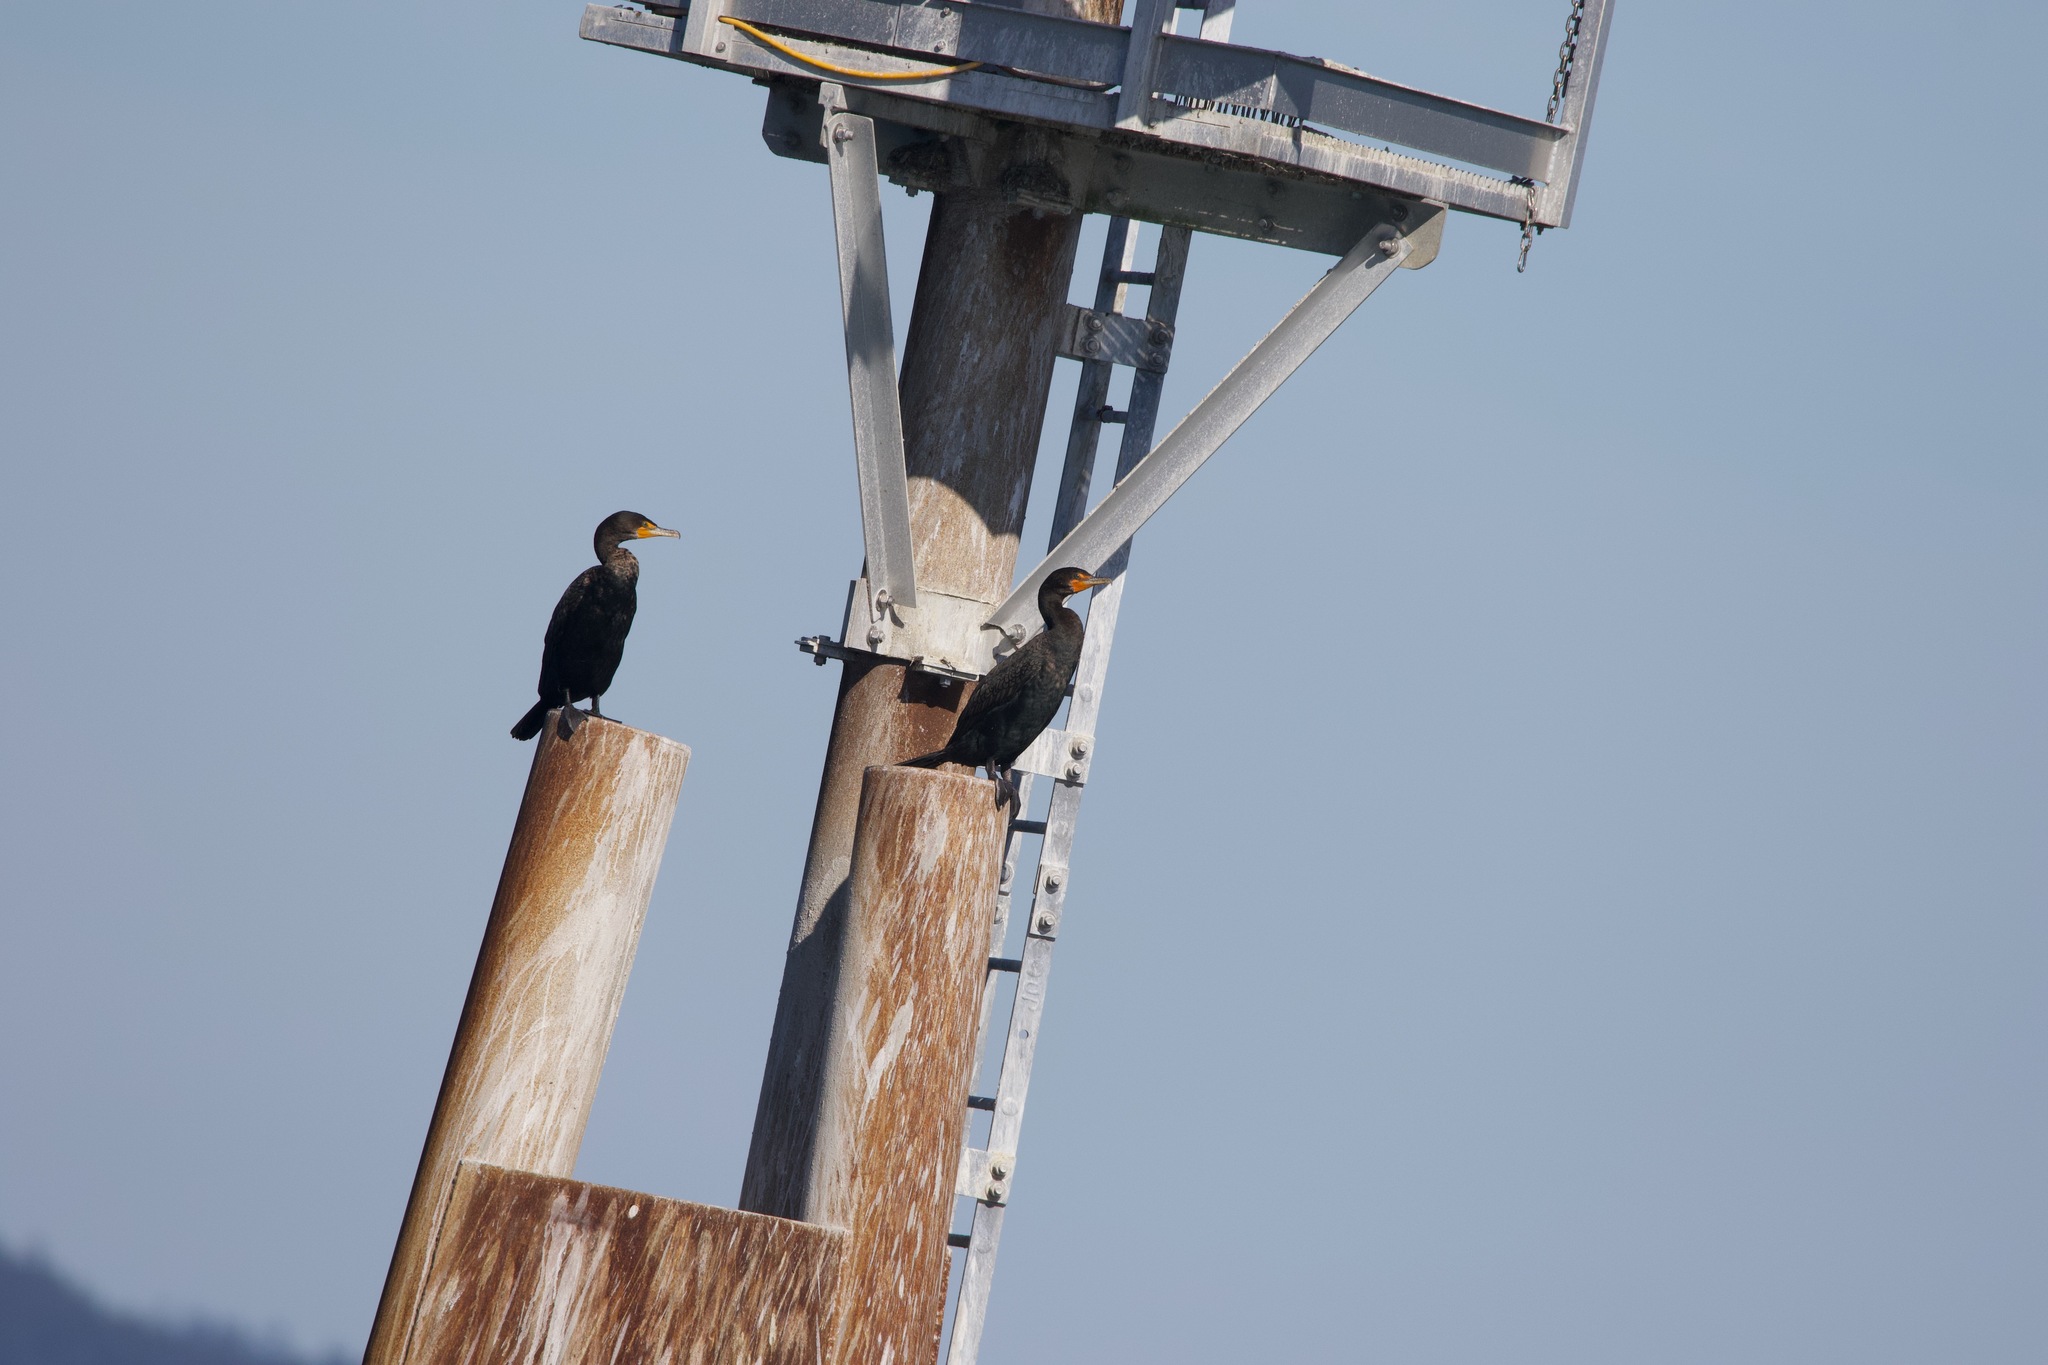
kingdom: Animalia
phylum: Chordata
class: Aves
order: Suliformes
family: Phalacrocoracidae
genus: Phalacrocorax
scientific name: Phalacrocorax auritus
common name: Double-crested cormorant
